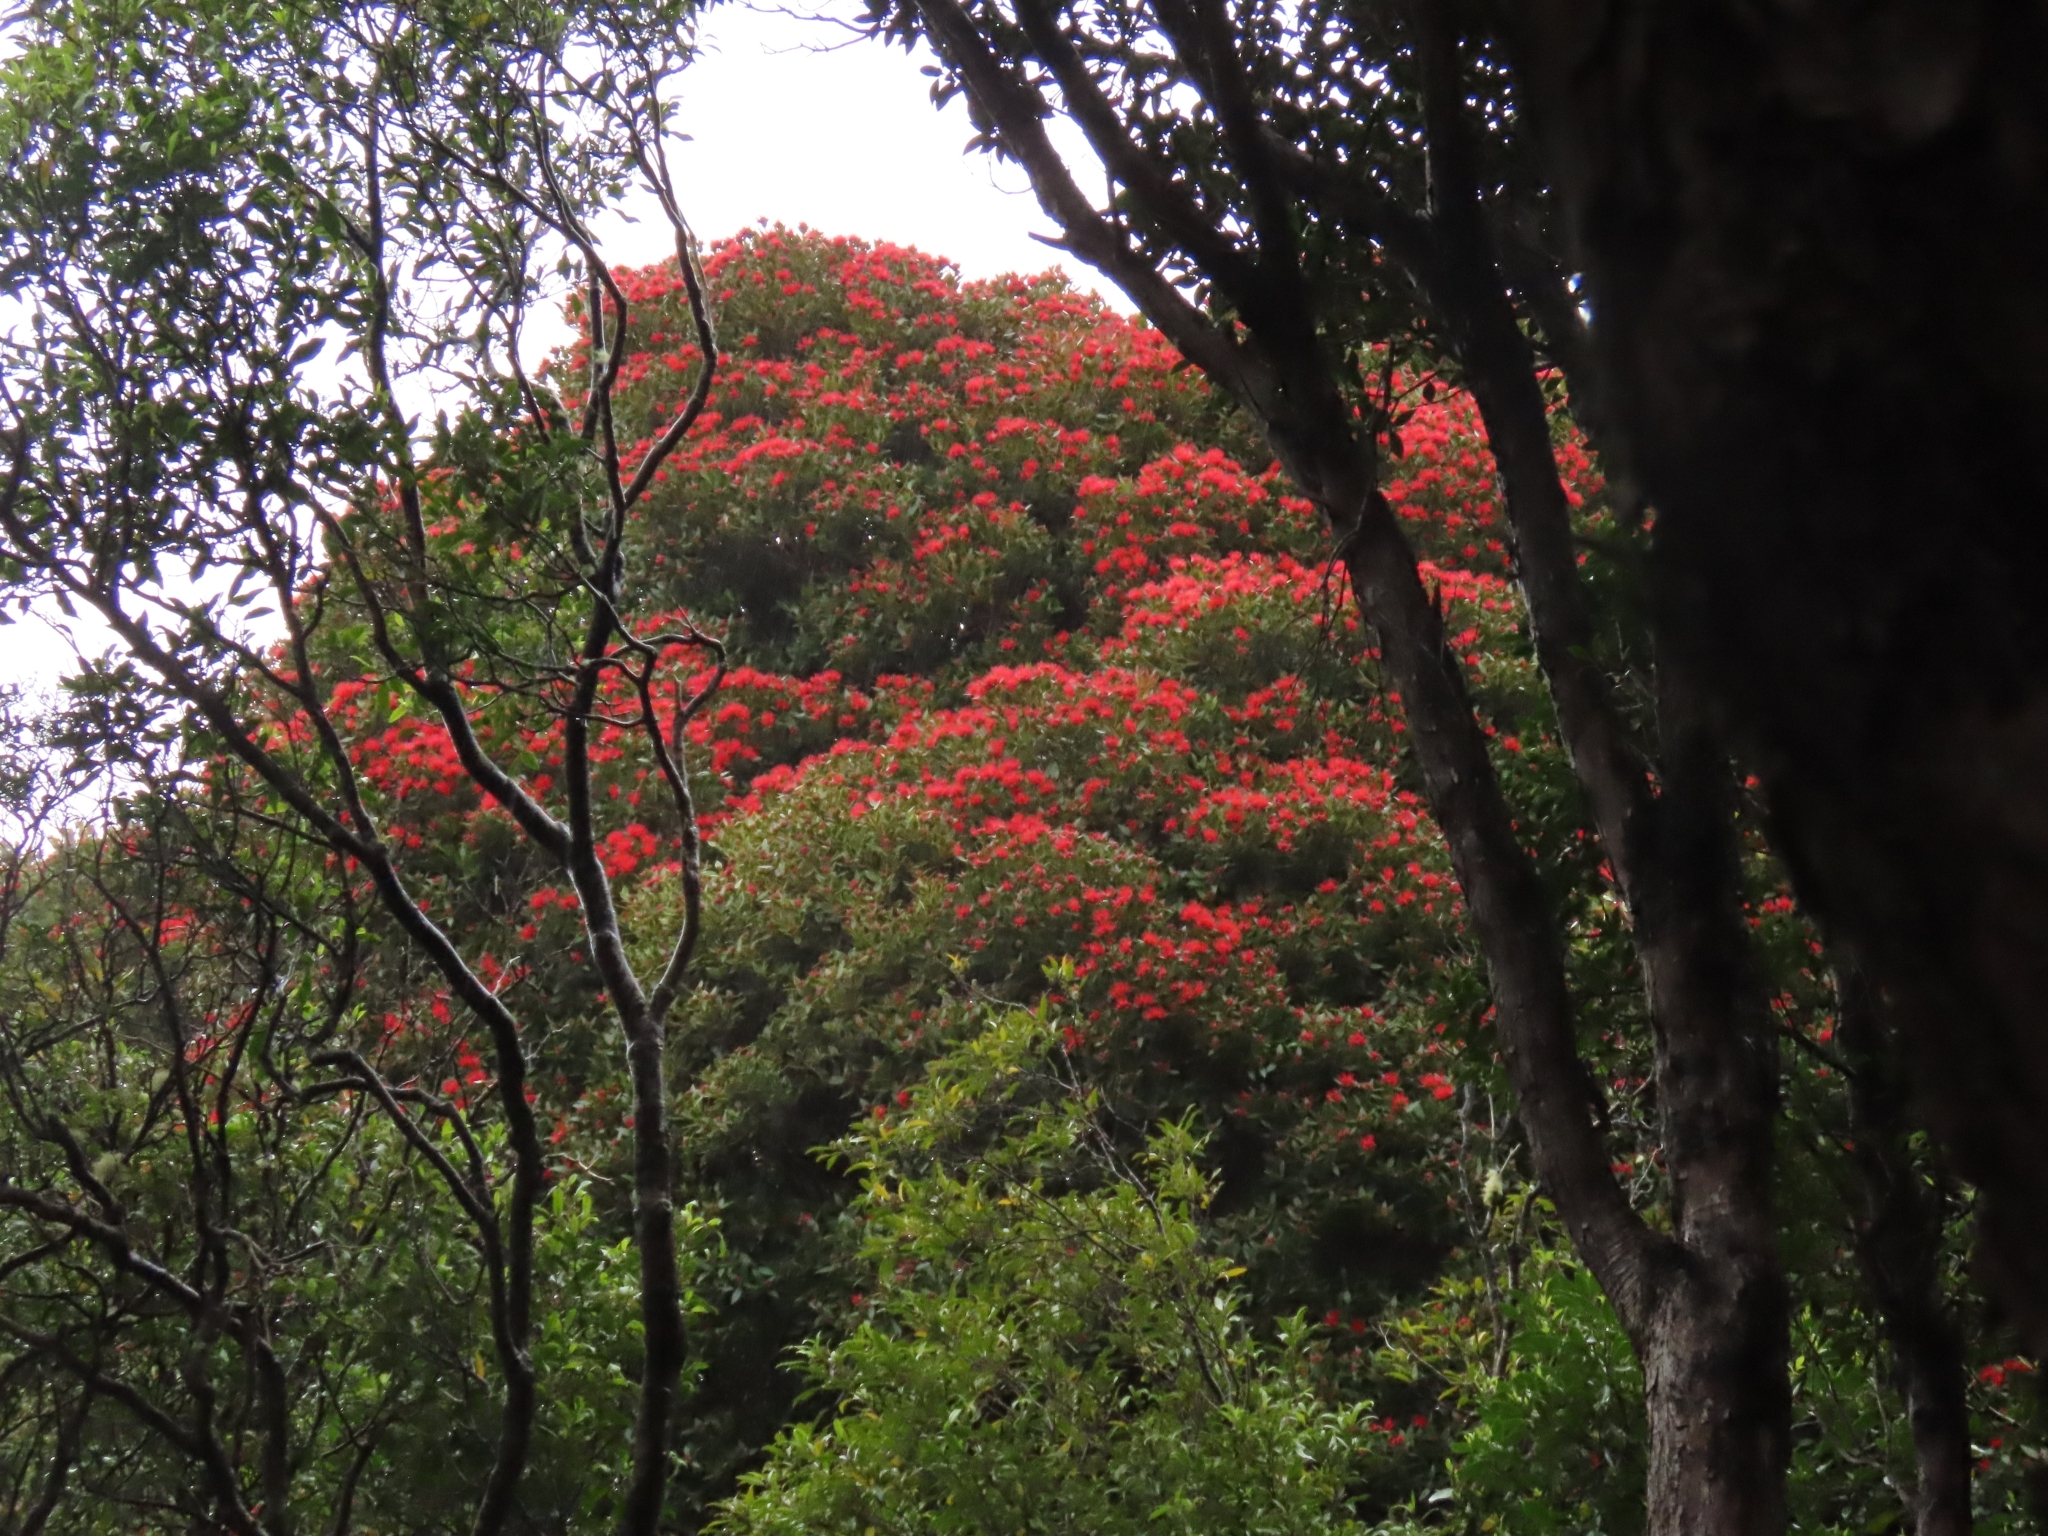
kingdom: Plantae
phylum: Tracheophyta
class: Magnoliopsida
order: Myrtales
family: Myrtaceae
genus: Metrosideros
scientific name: Metrosideros umbellata
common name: Southern rata
